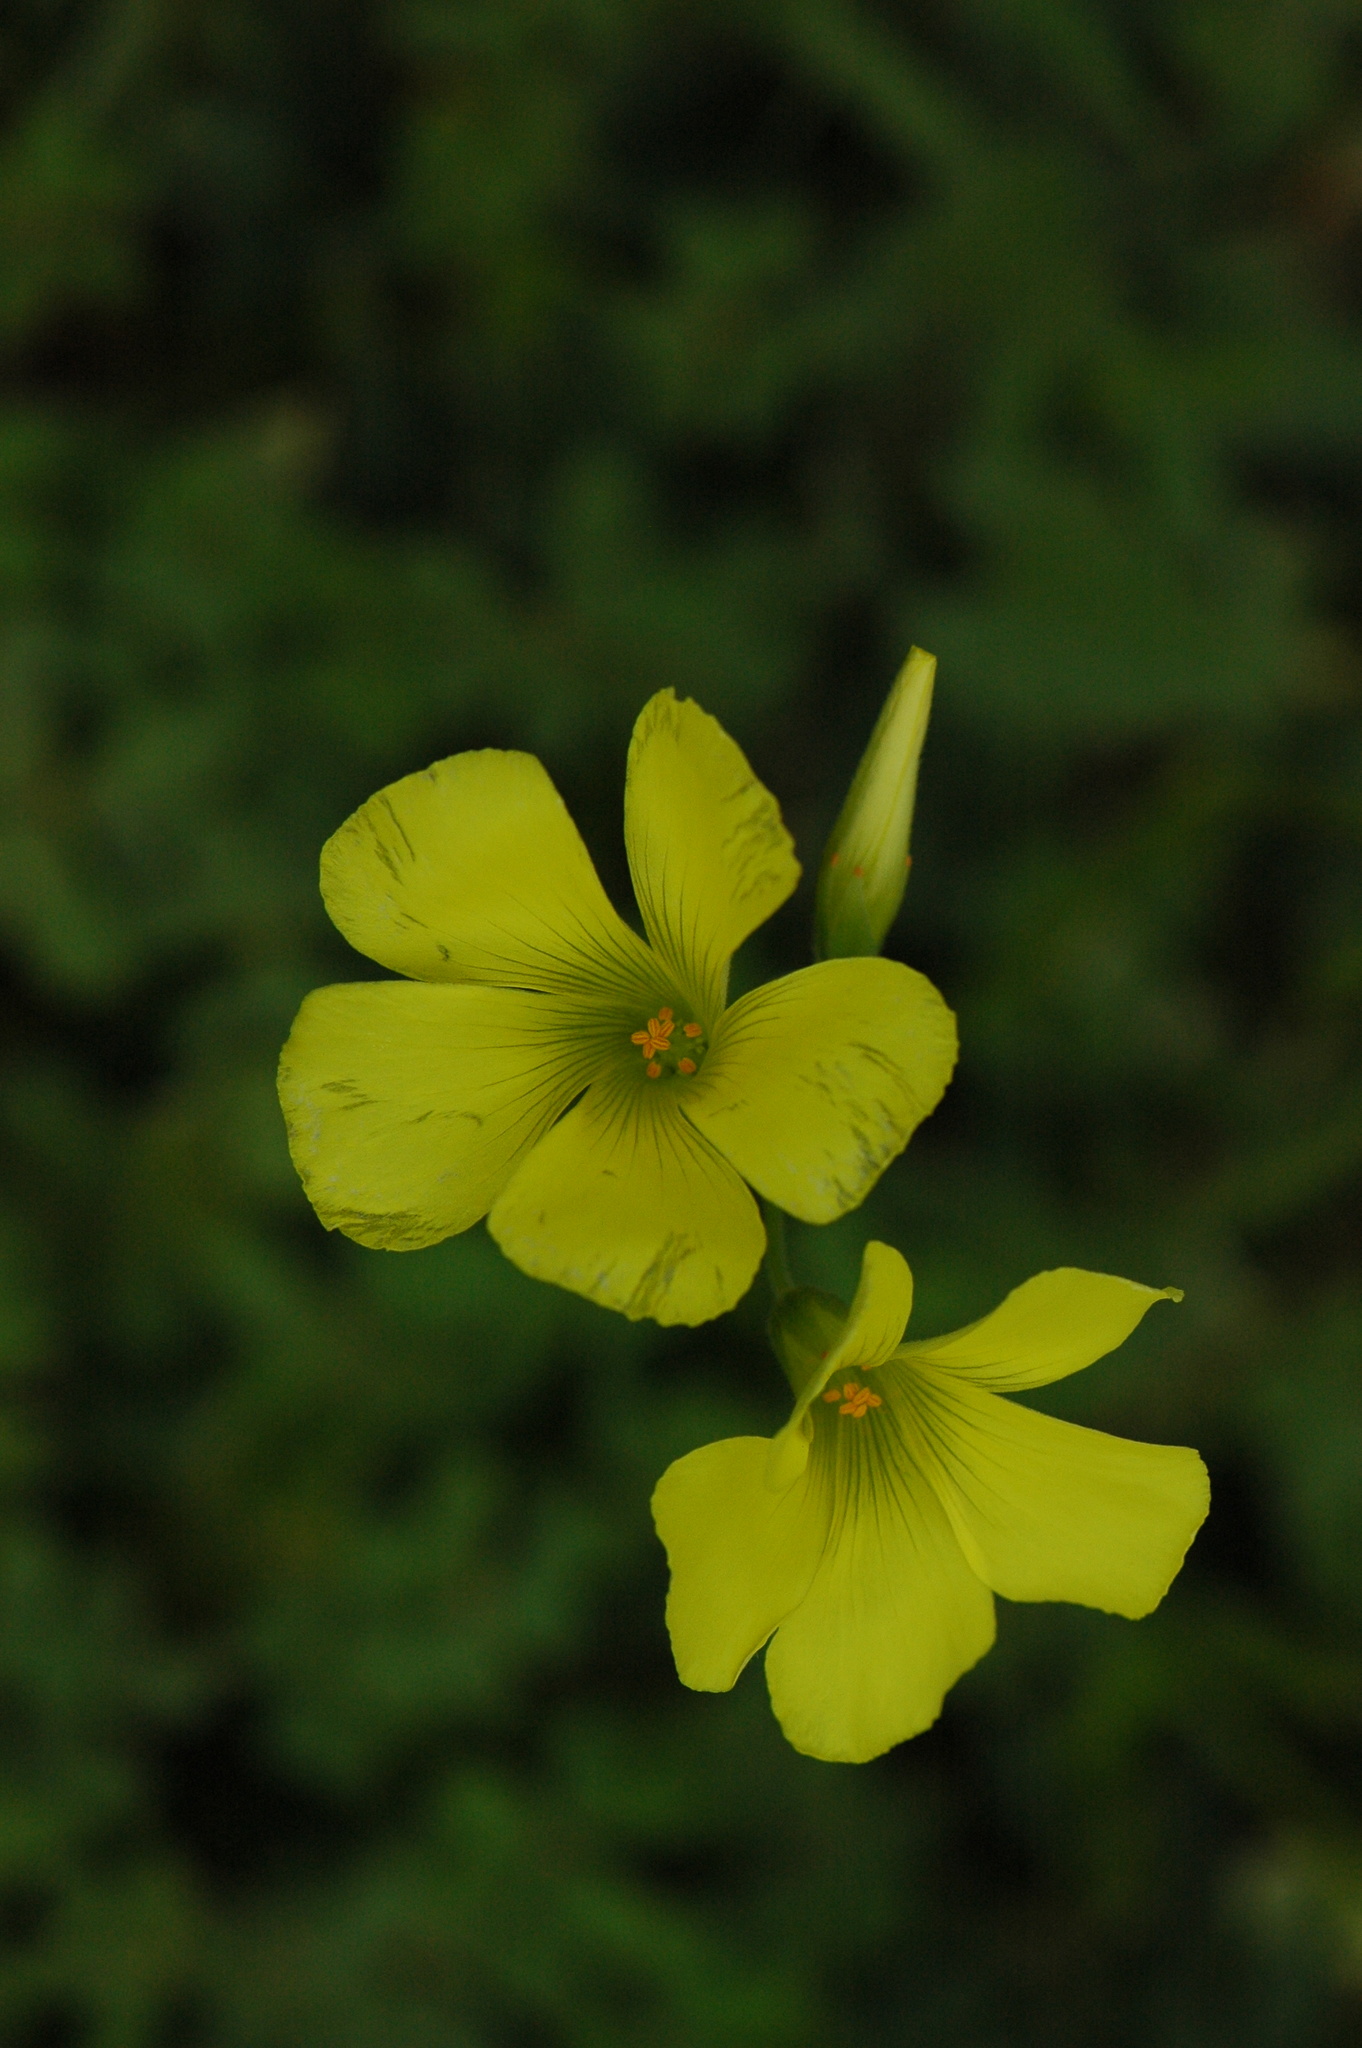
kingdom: Plantae
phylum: Tracheophyta
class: Magnoliopsida
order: Oxalidales
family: Oxalidaceae
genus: Oxalis
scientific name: Oxalis pes-caprae
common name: Bermuda-buttercup
